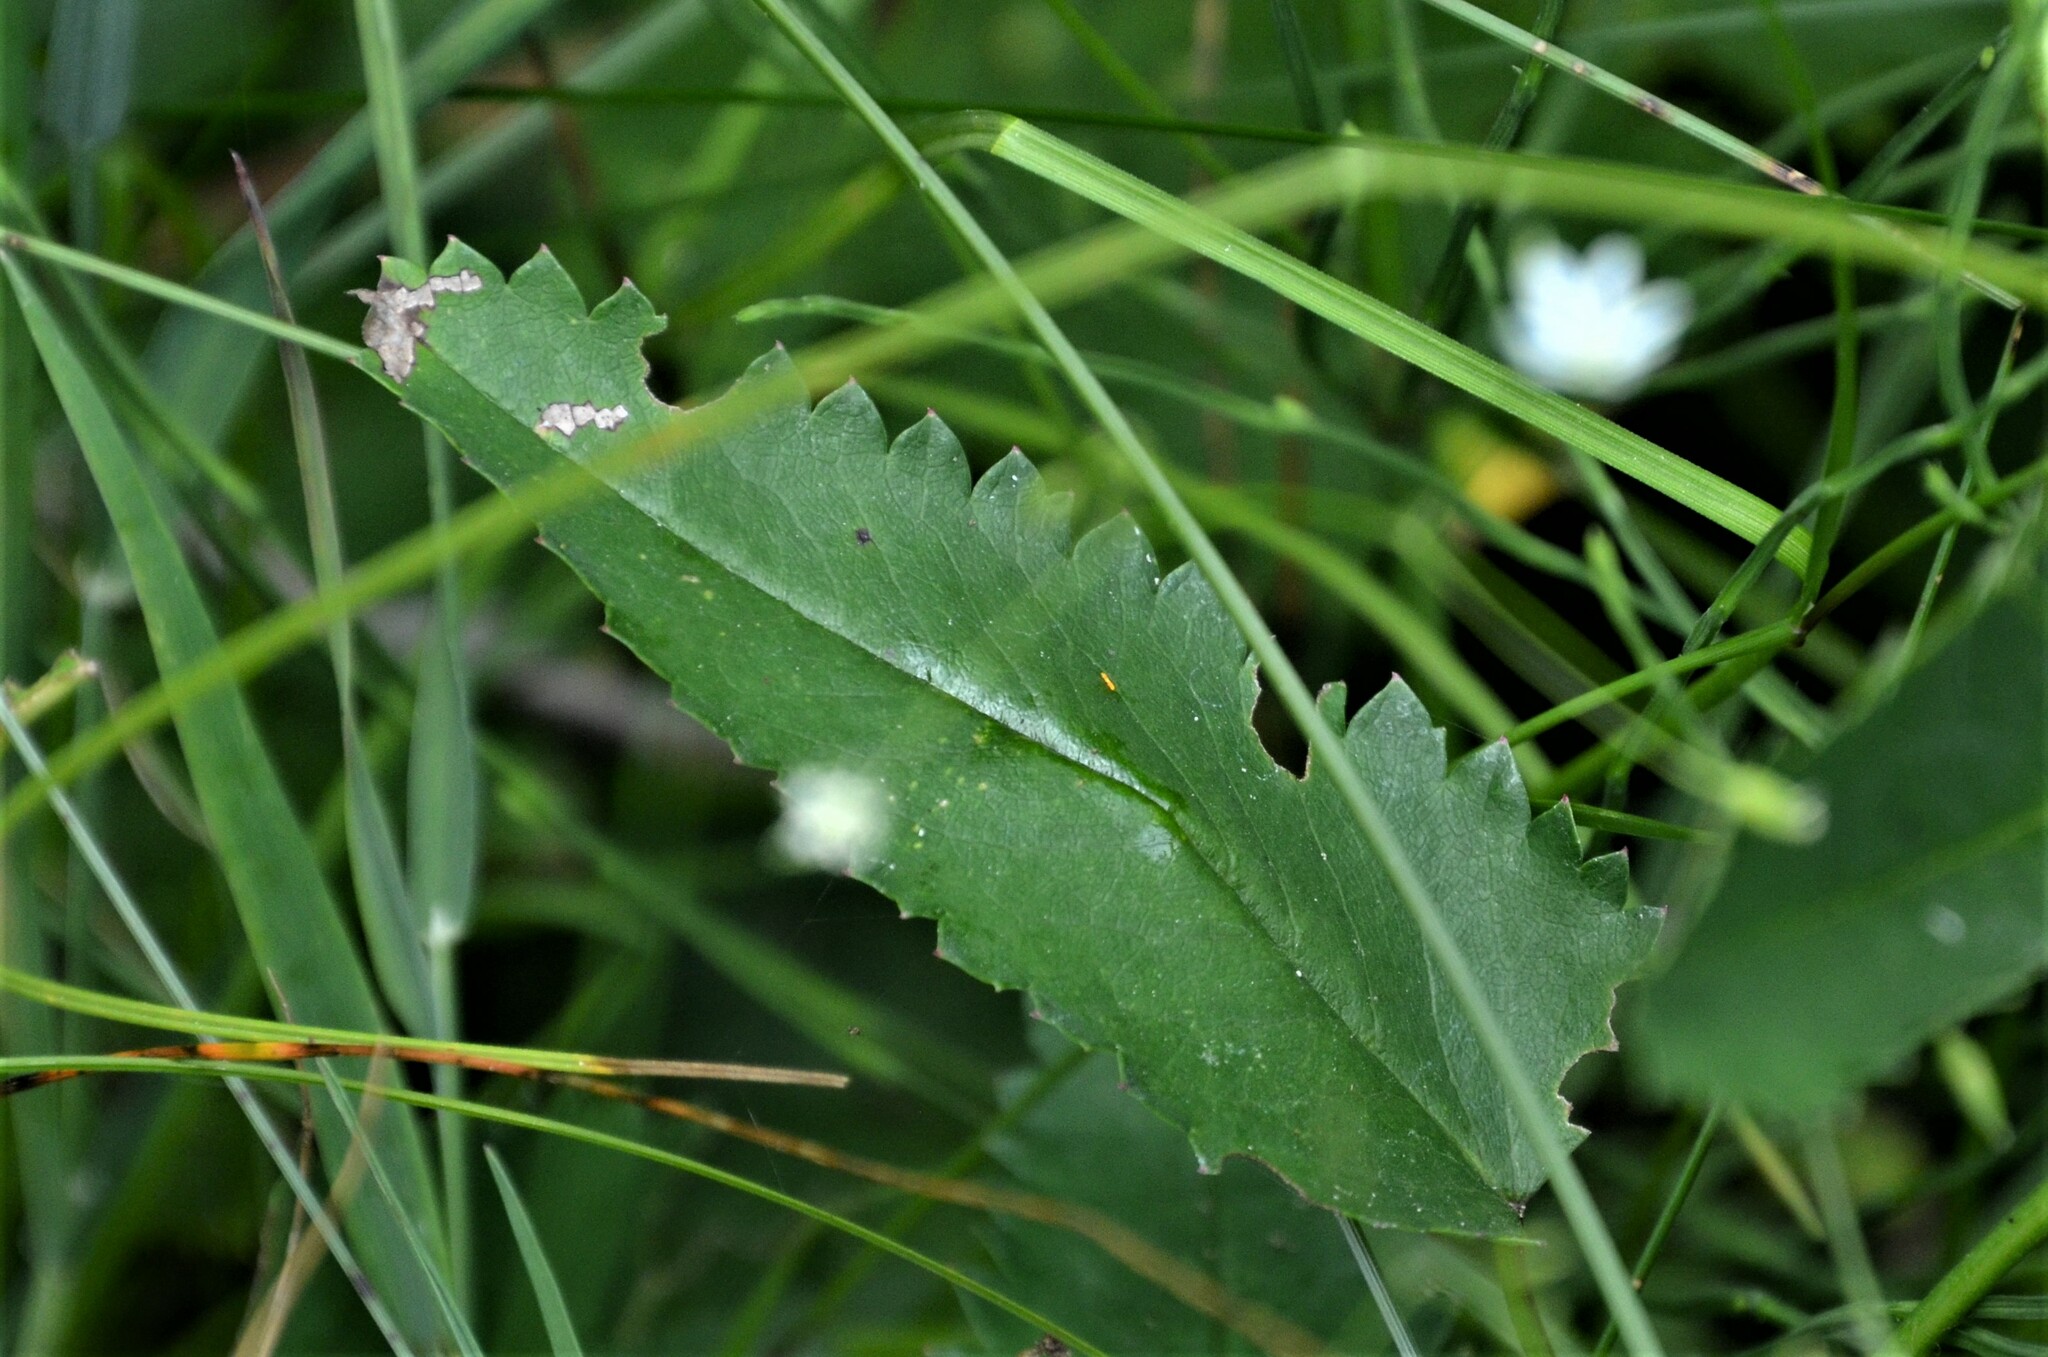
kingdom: Plantae
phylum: Tracheophyta
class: Magnoliopsida
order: Rosales
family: Rosaceae
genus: Sanguisorba
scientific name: Sanguisorba officinalis
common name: Great burnet
